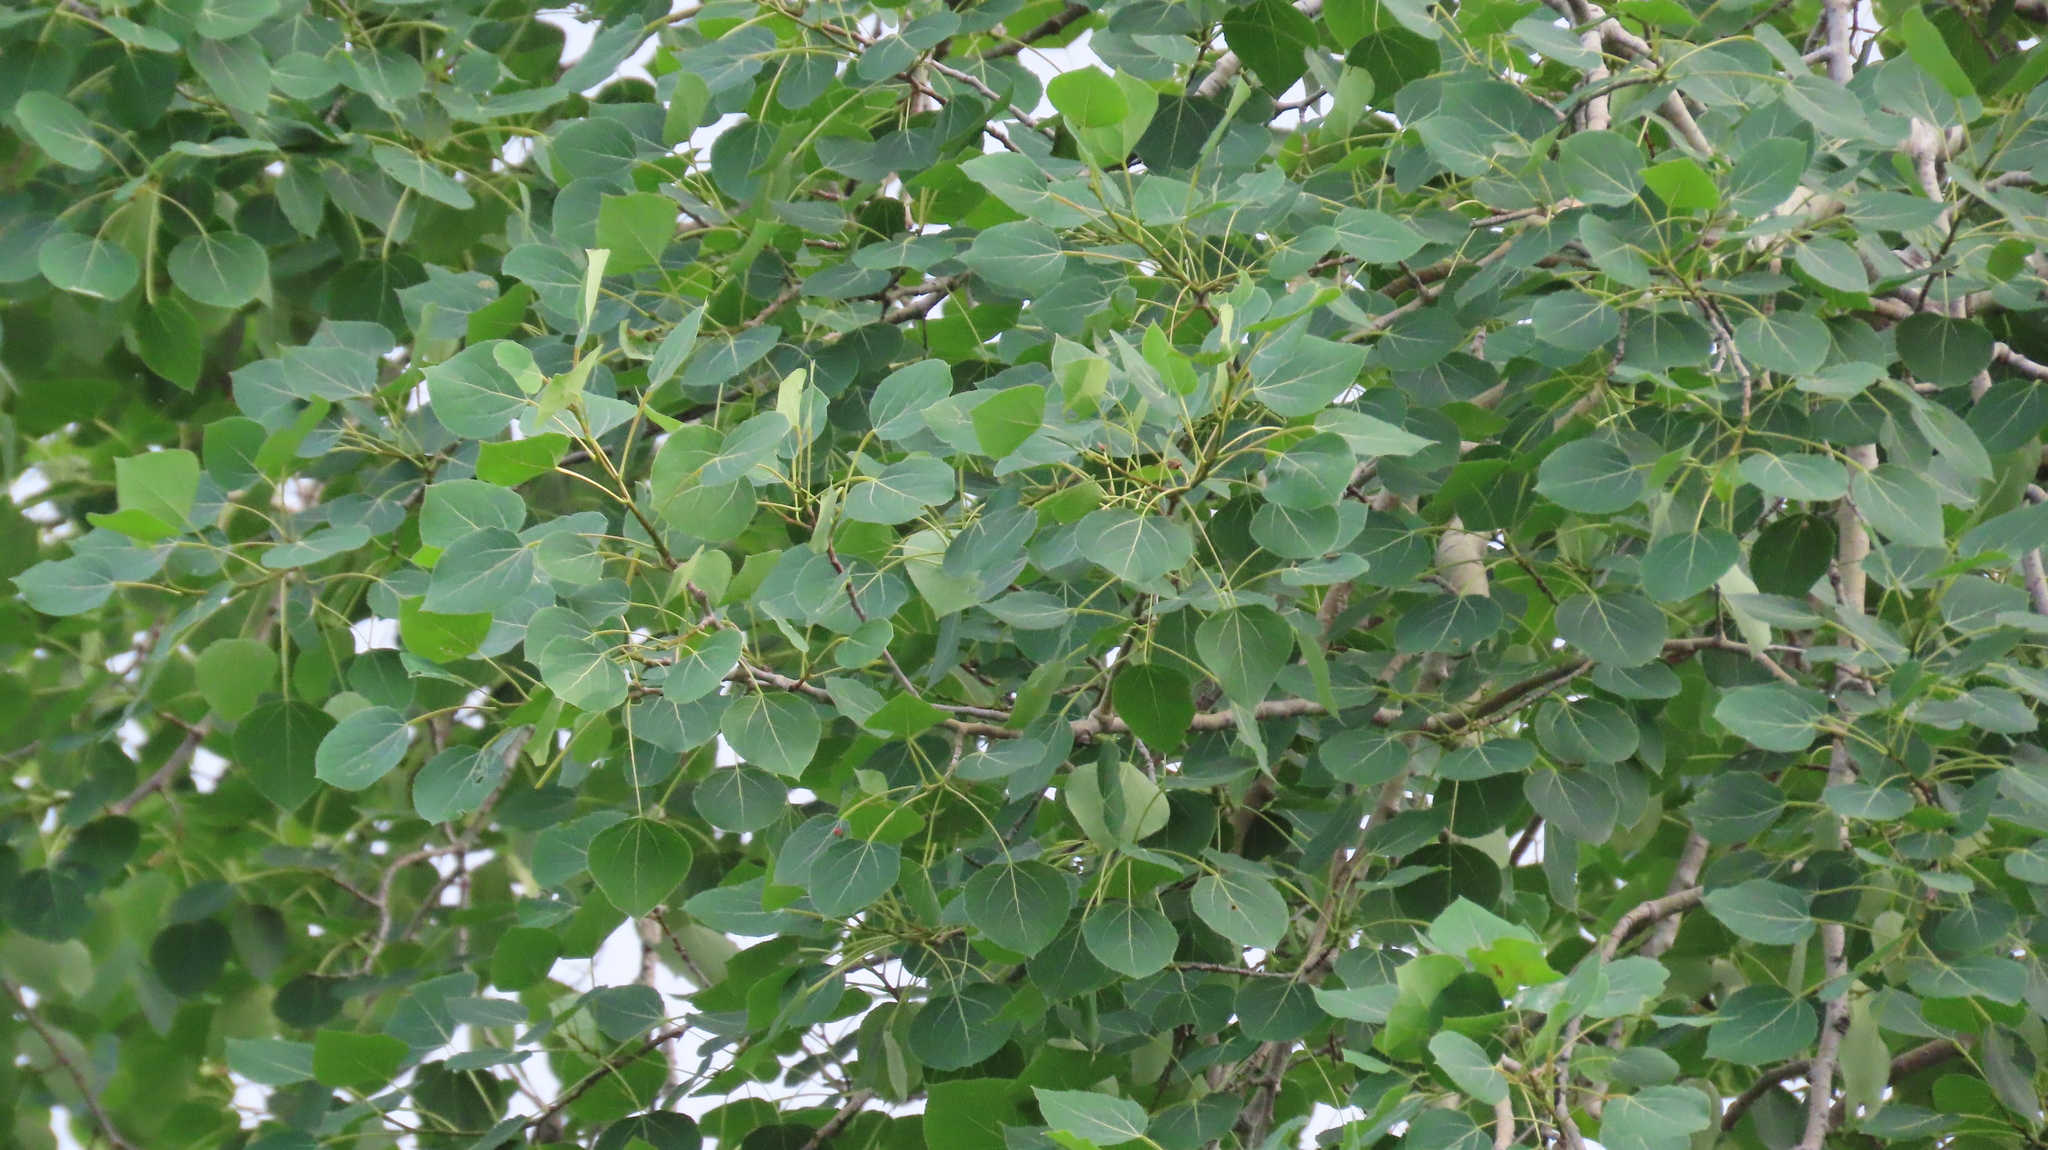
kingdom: Plantae
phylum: Tracheophyta
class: Magnoliopsida
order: Malpighiales
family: Salicaceae
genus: Populus
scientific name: Populus tremuloides
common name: Quaking aspen
